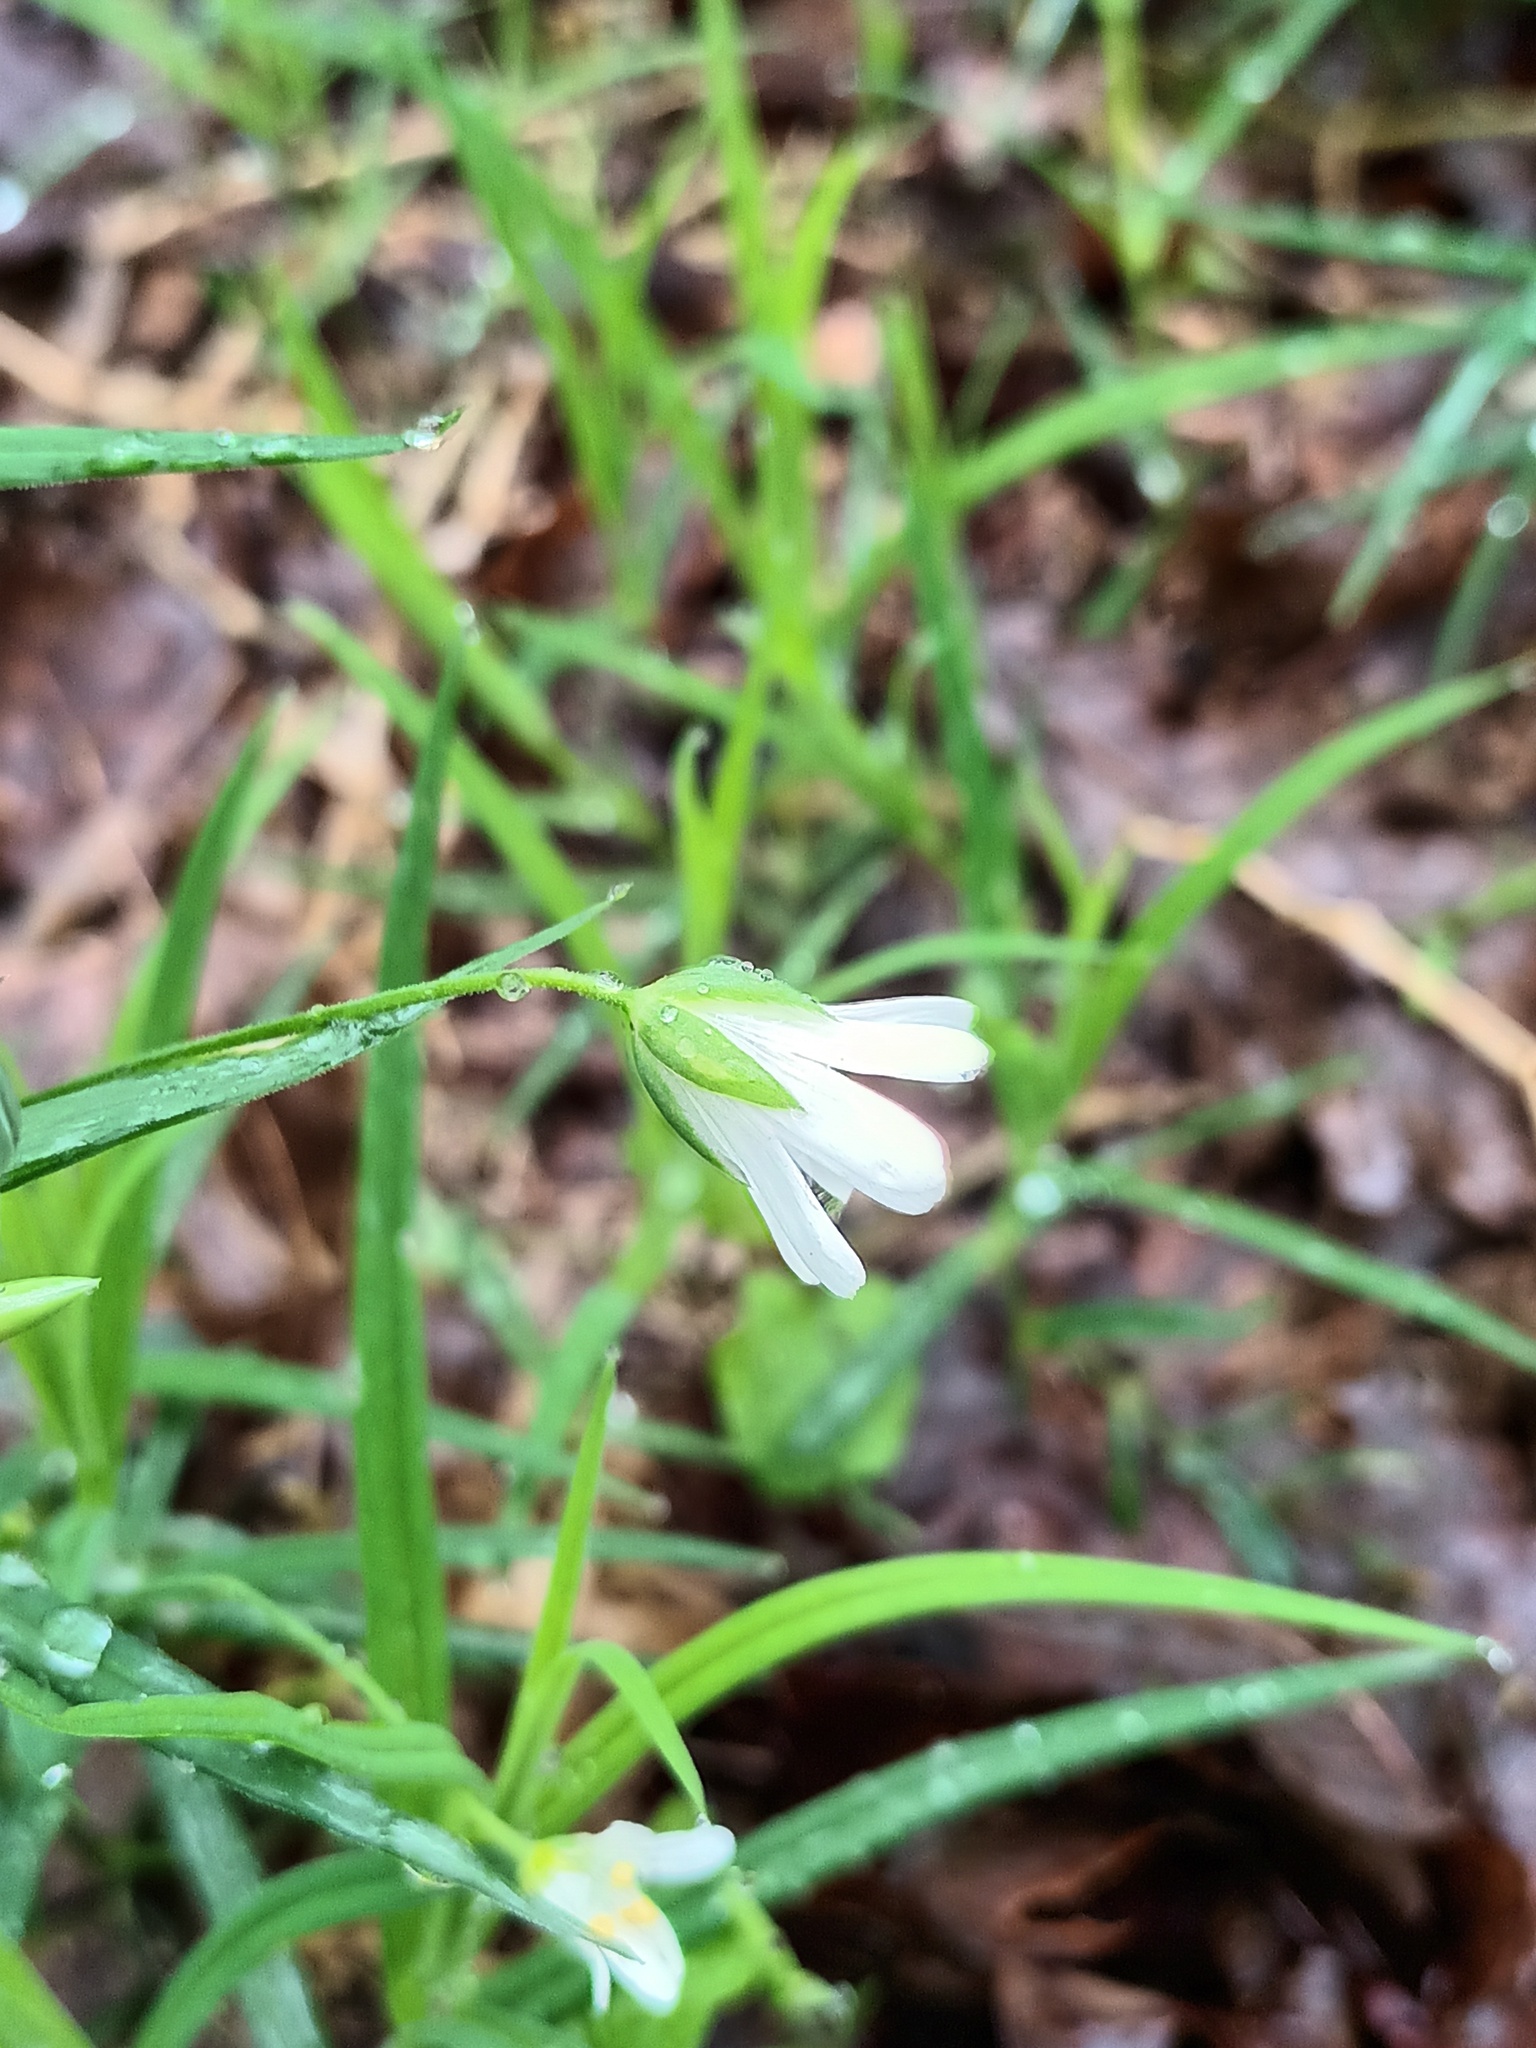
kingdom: Plantae
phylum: Tracheophyta
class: Magnoliopsida
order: Caryophyllales
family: Caryophyllaceae
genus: Rabelera
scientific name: Rabelera holostea
